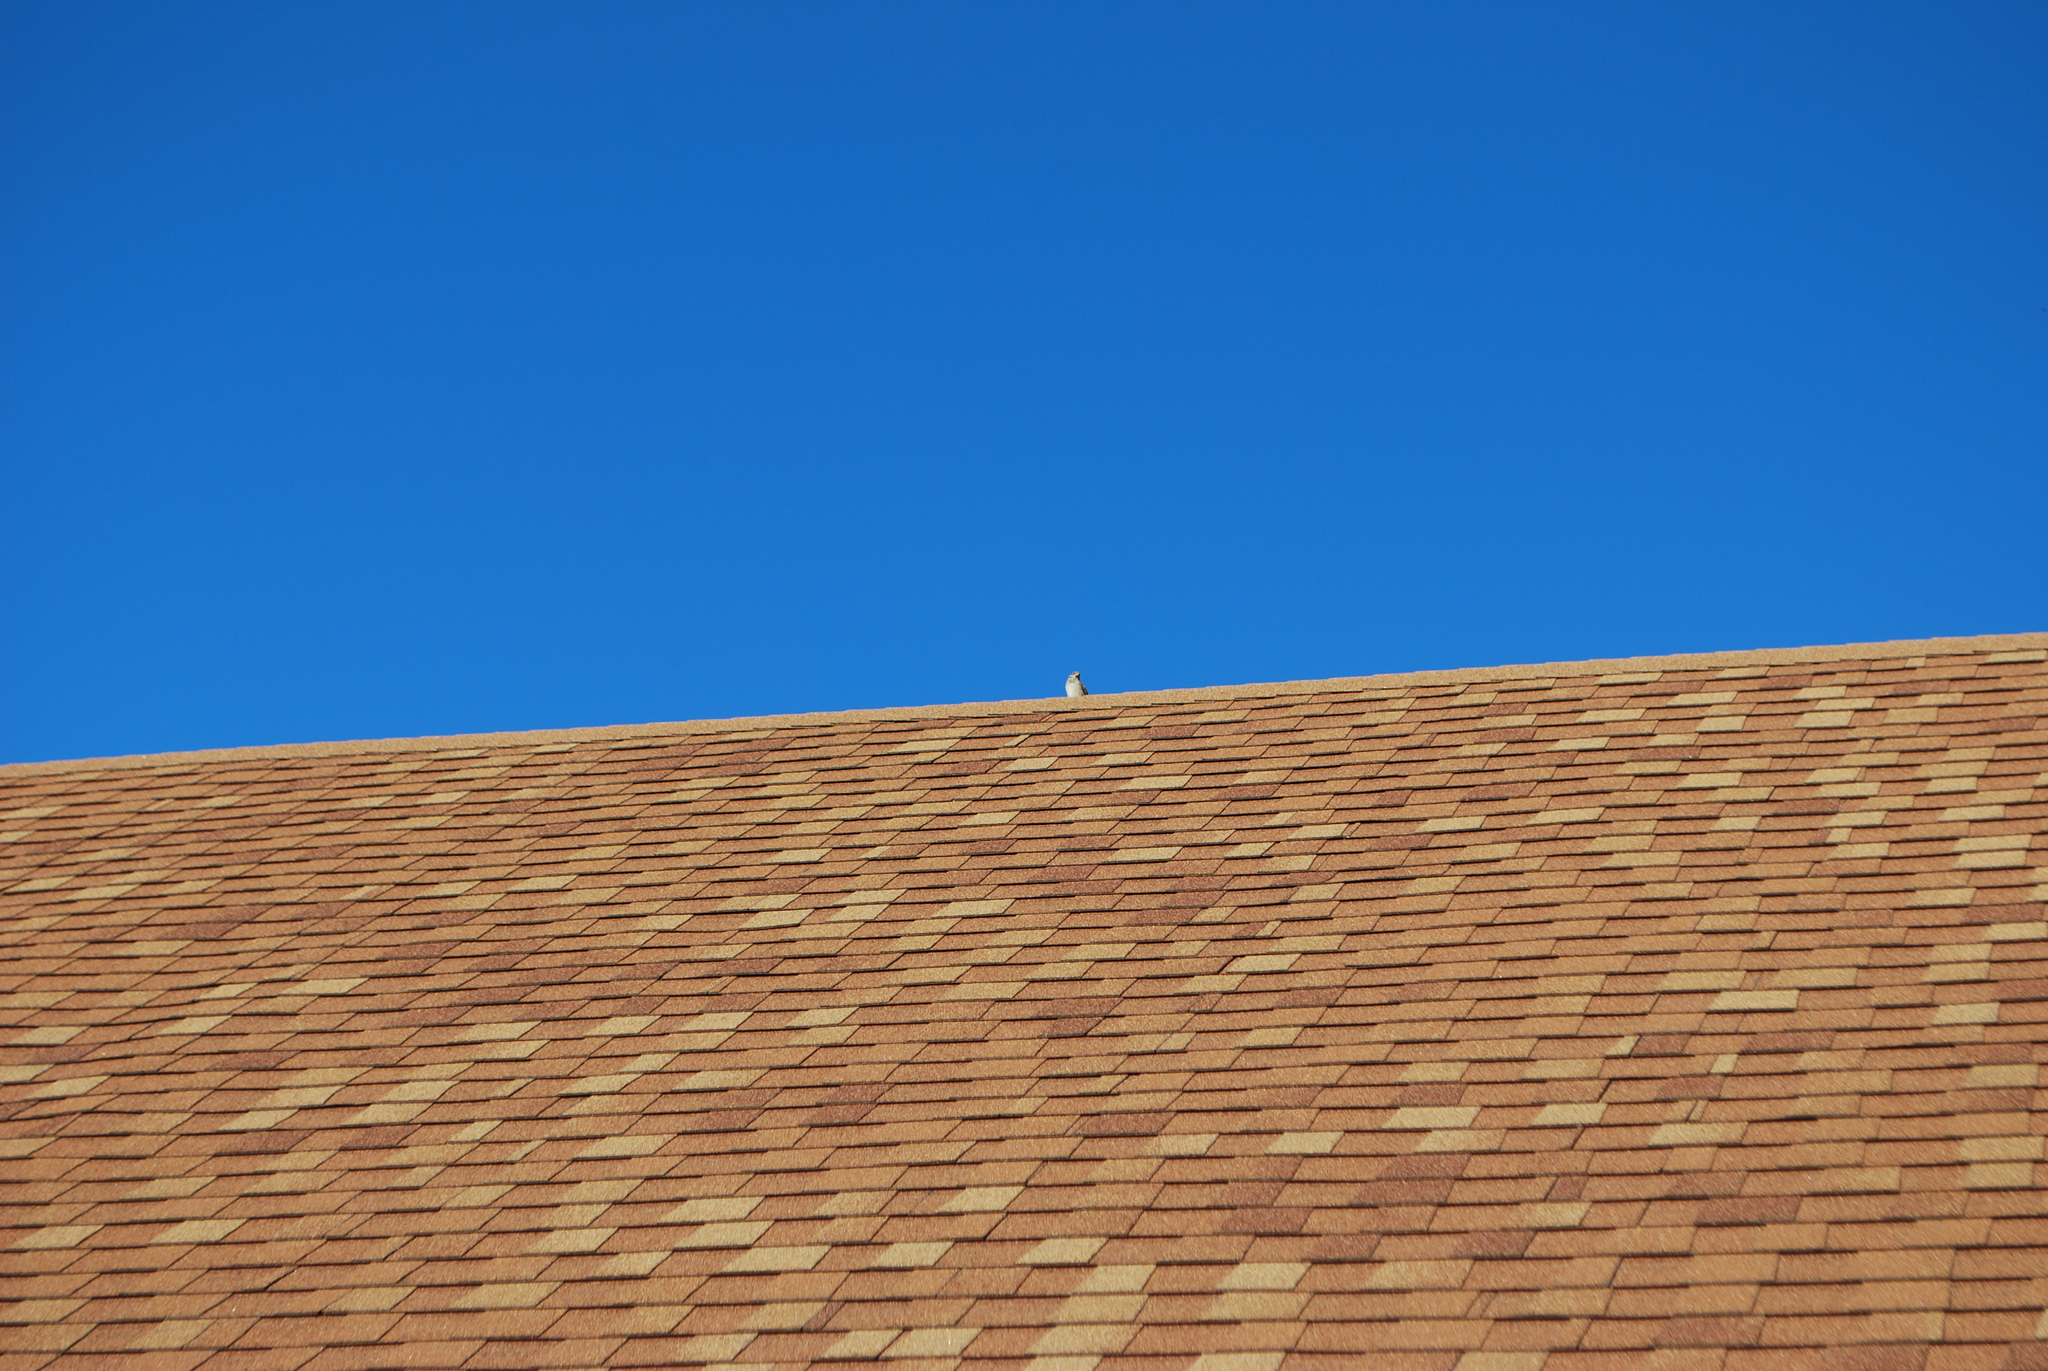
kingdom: Animalia
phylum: Chordata
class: Aves
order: Passeriformes
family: Passeridae
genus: Passer
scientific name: Passer domesticus
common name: House sparrow
